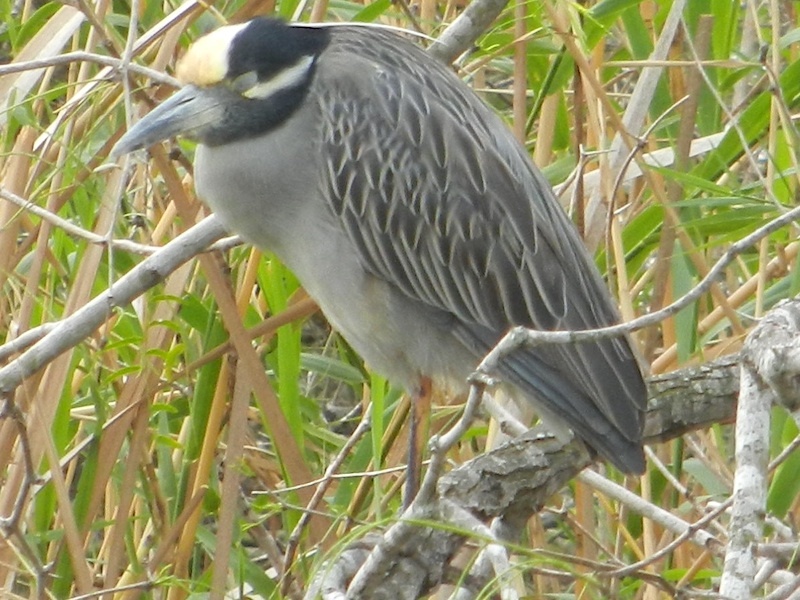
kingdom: Animalia
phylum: Chordata
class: Aves
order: Pelecaniformes
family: Ardeidae
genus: Nyctanassa
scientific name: Nyctanassa violacea
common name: Yellow-crowned night heron
